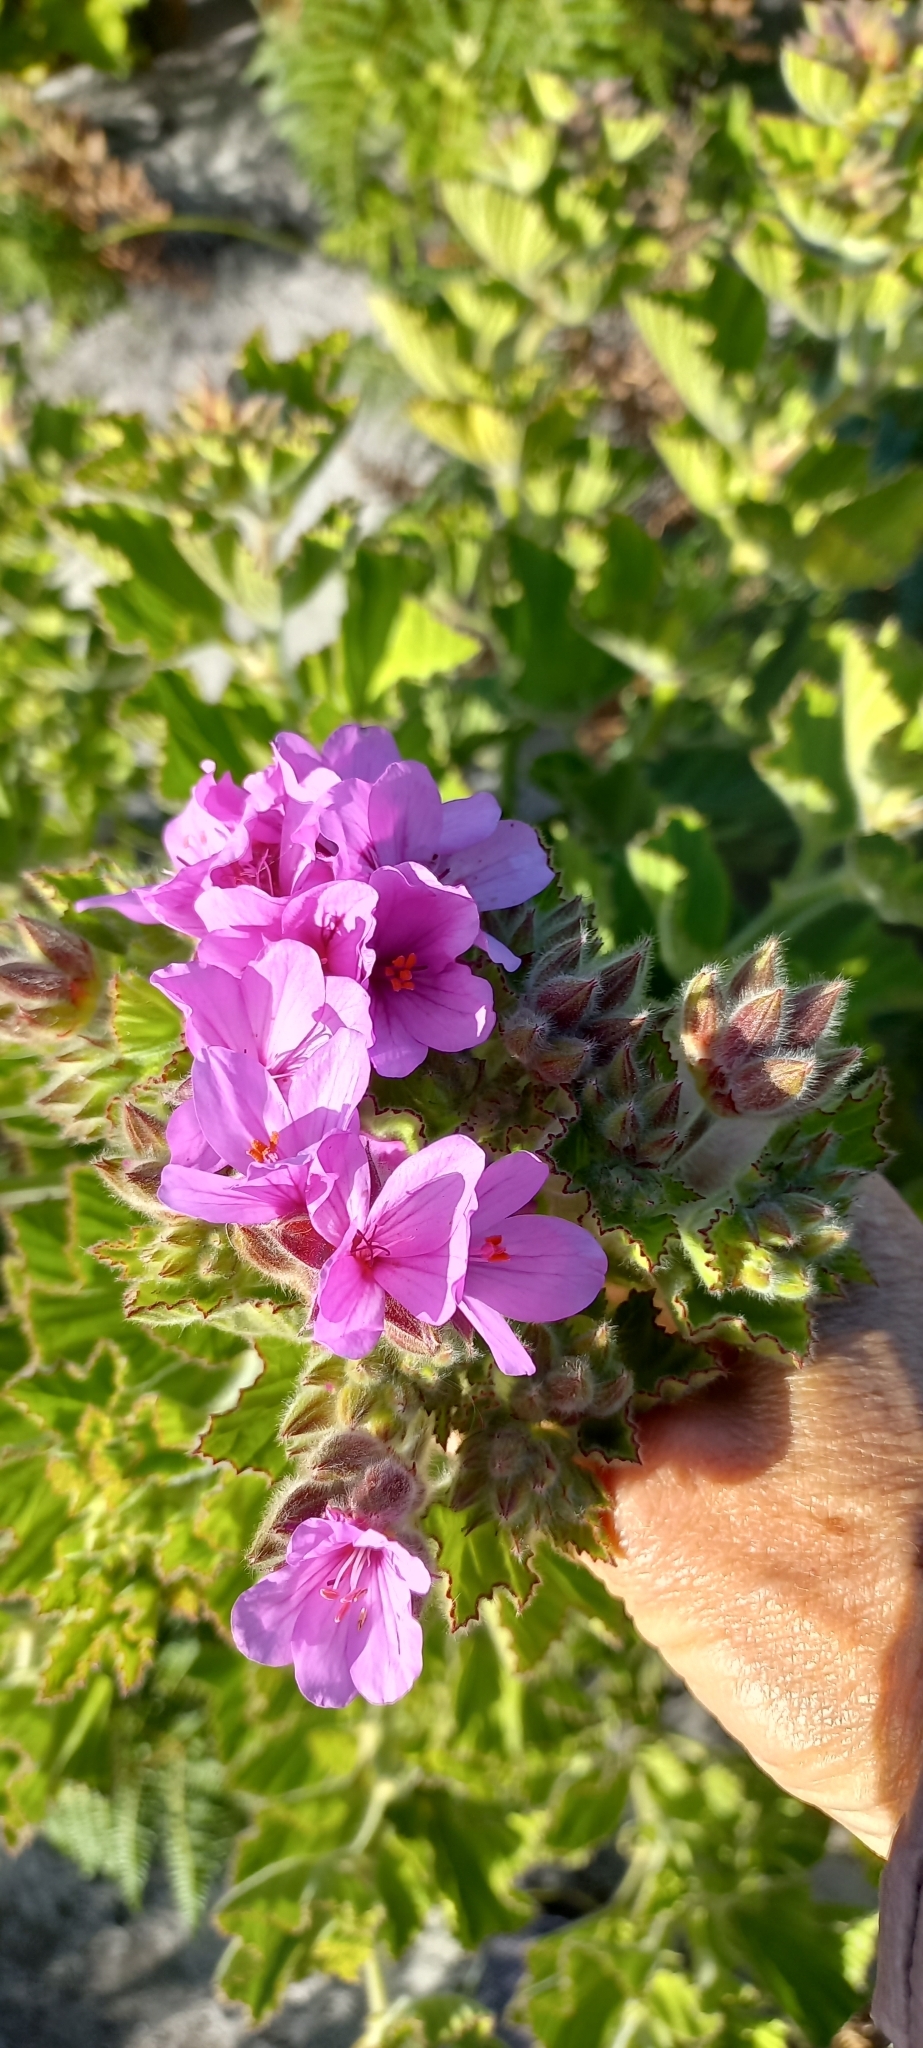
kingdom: Plantae
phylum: Tracheophyta
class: Magnoliopsida
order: Geraniales
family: Geraniaceae
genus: Pelargonium
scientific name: Pelargonium cucullatum
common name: Tree pelargonium
